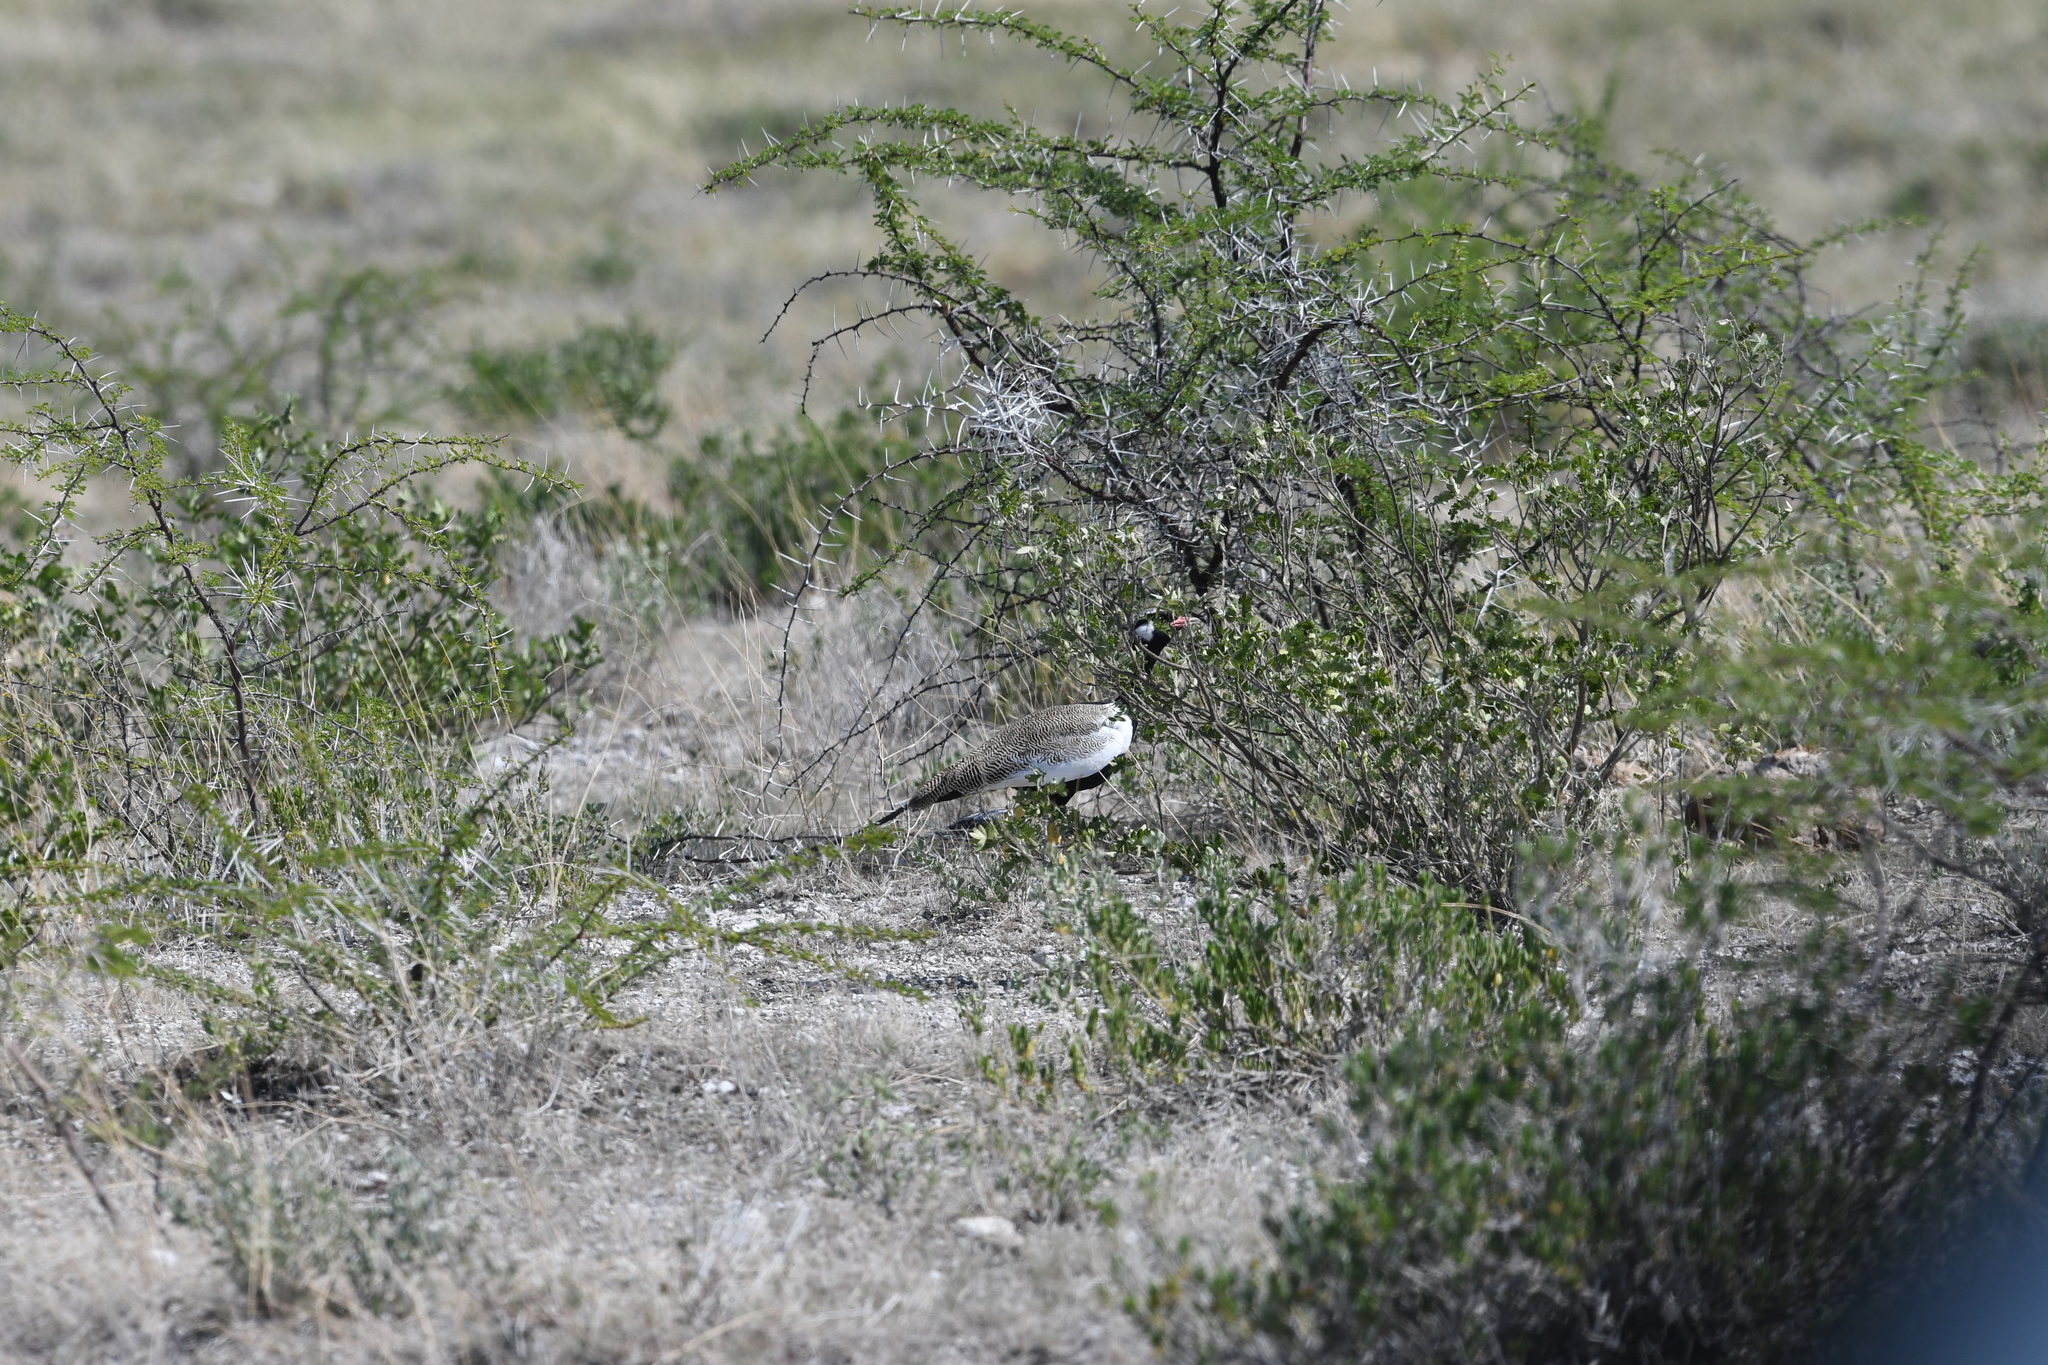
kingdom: Animalia
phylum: Chordata
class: Aves
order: Otidiformes
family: Otididae
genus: Afrotis
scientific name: Afrotis afraoides
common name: Northern black korhaan
